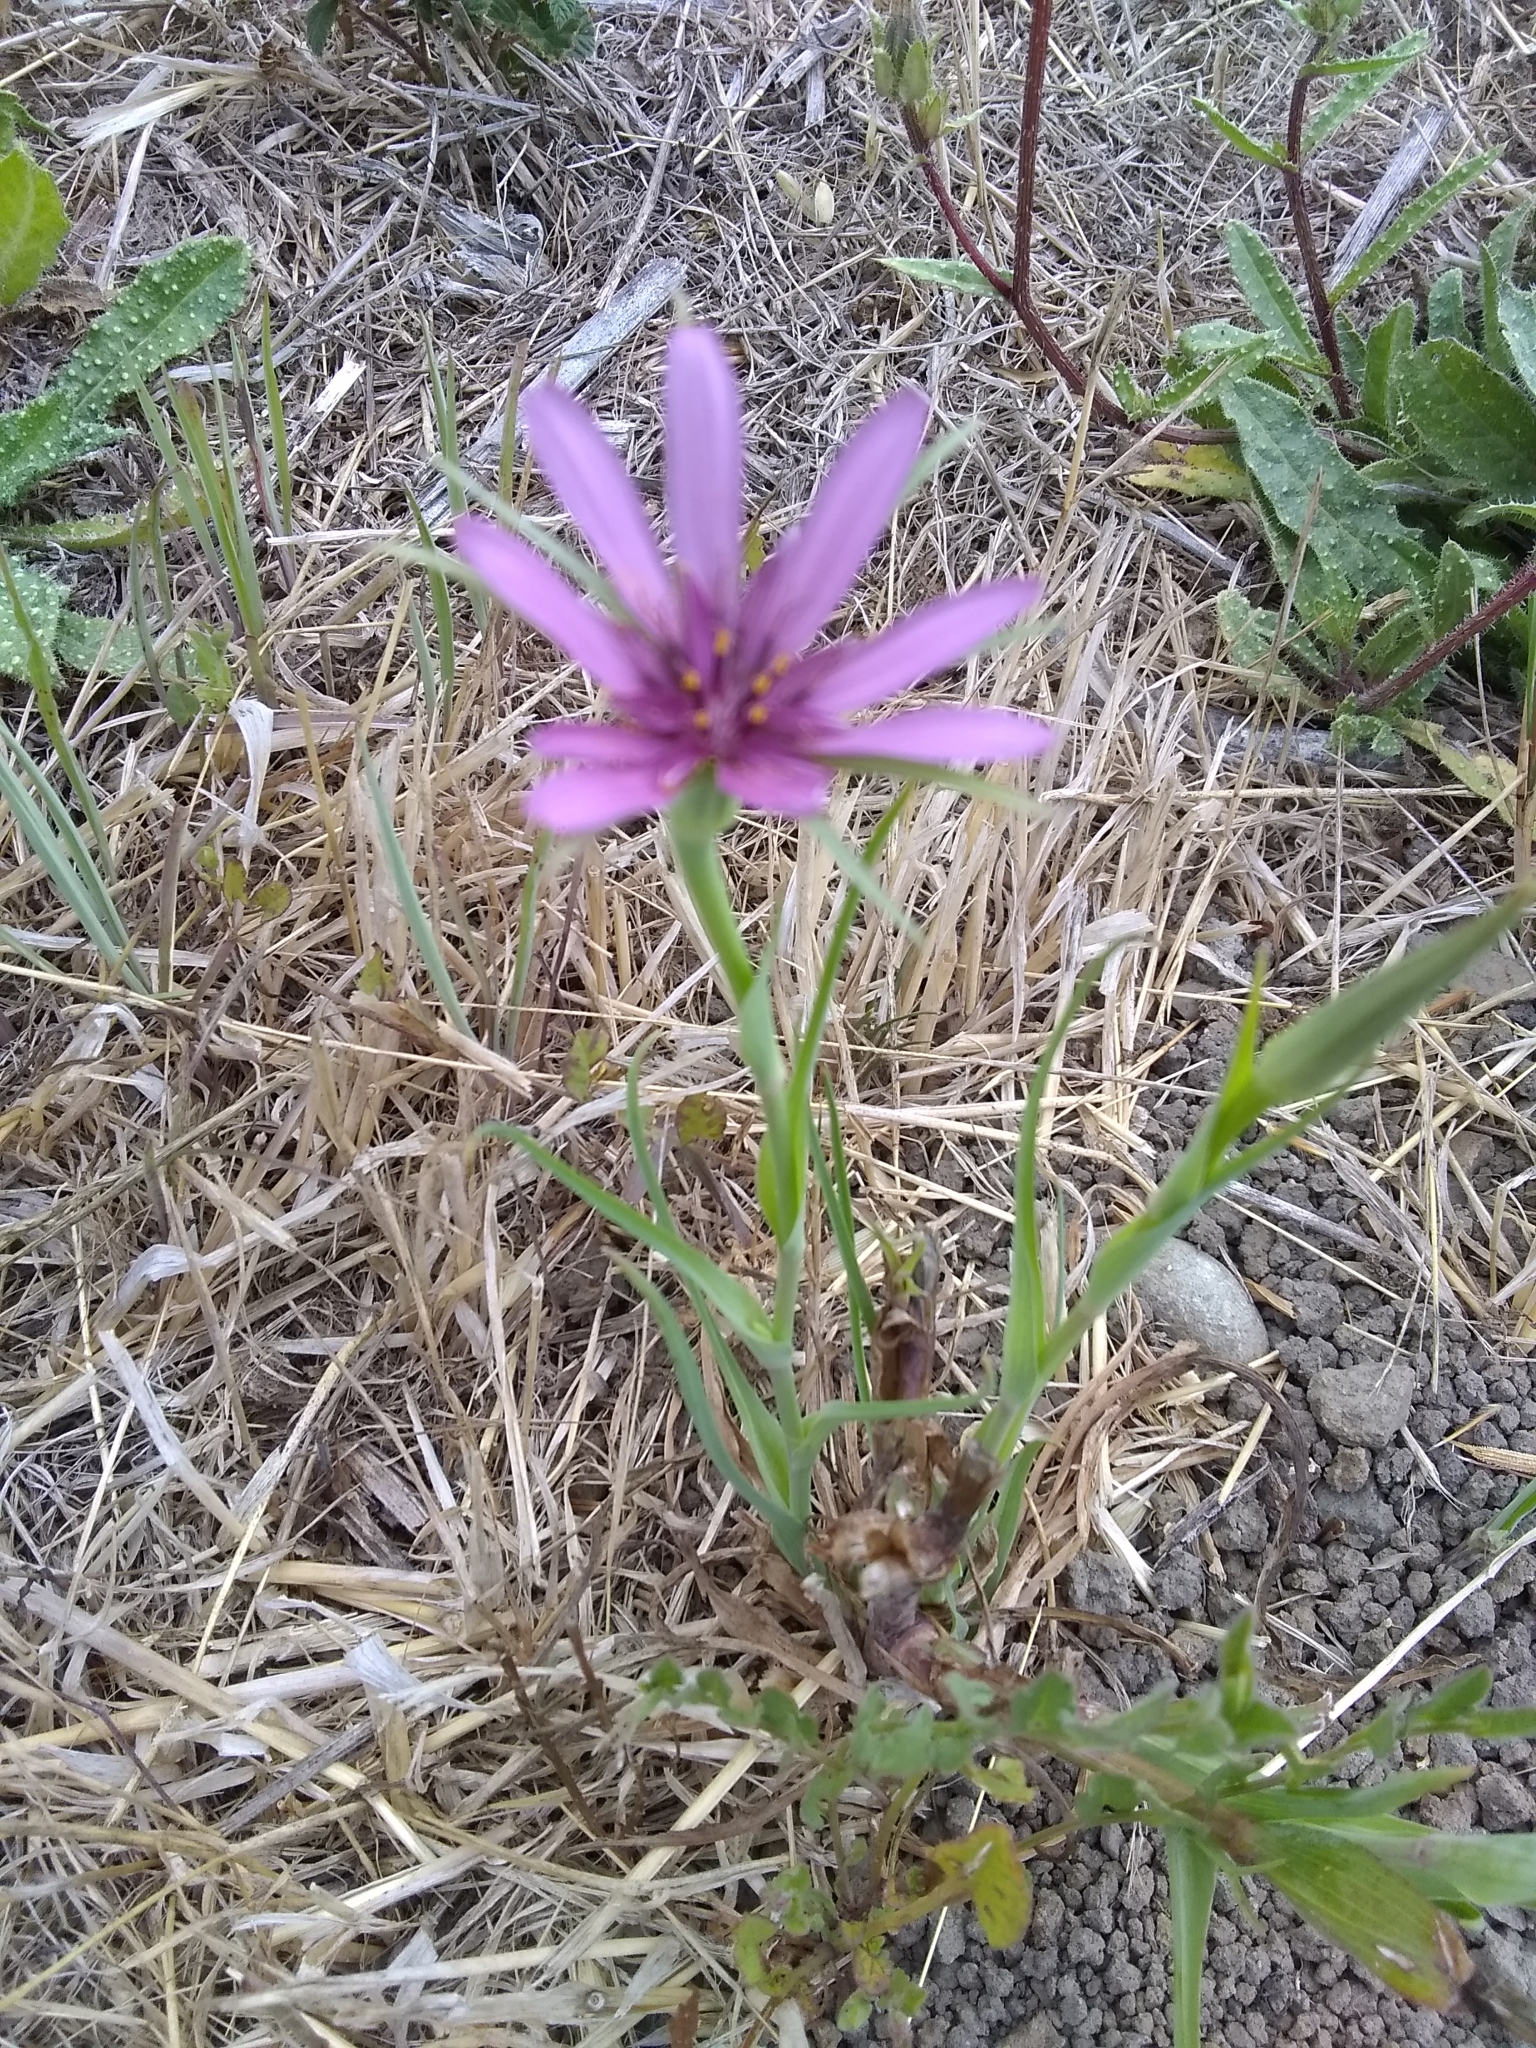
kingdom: Plantae
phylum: Tracheophyta
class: Magnoliopsida
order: Asterales
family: Asteraceae
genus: Tragopogon
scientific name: Tragopogon porrifolius
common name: Salsify
